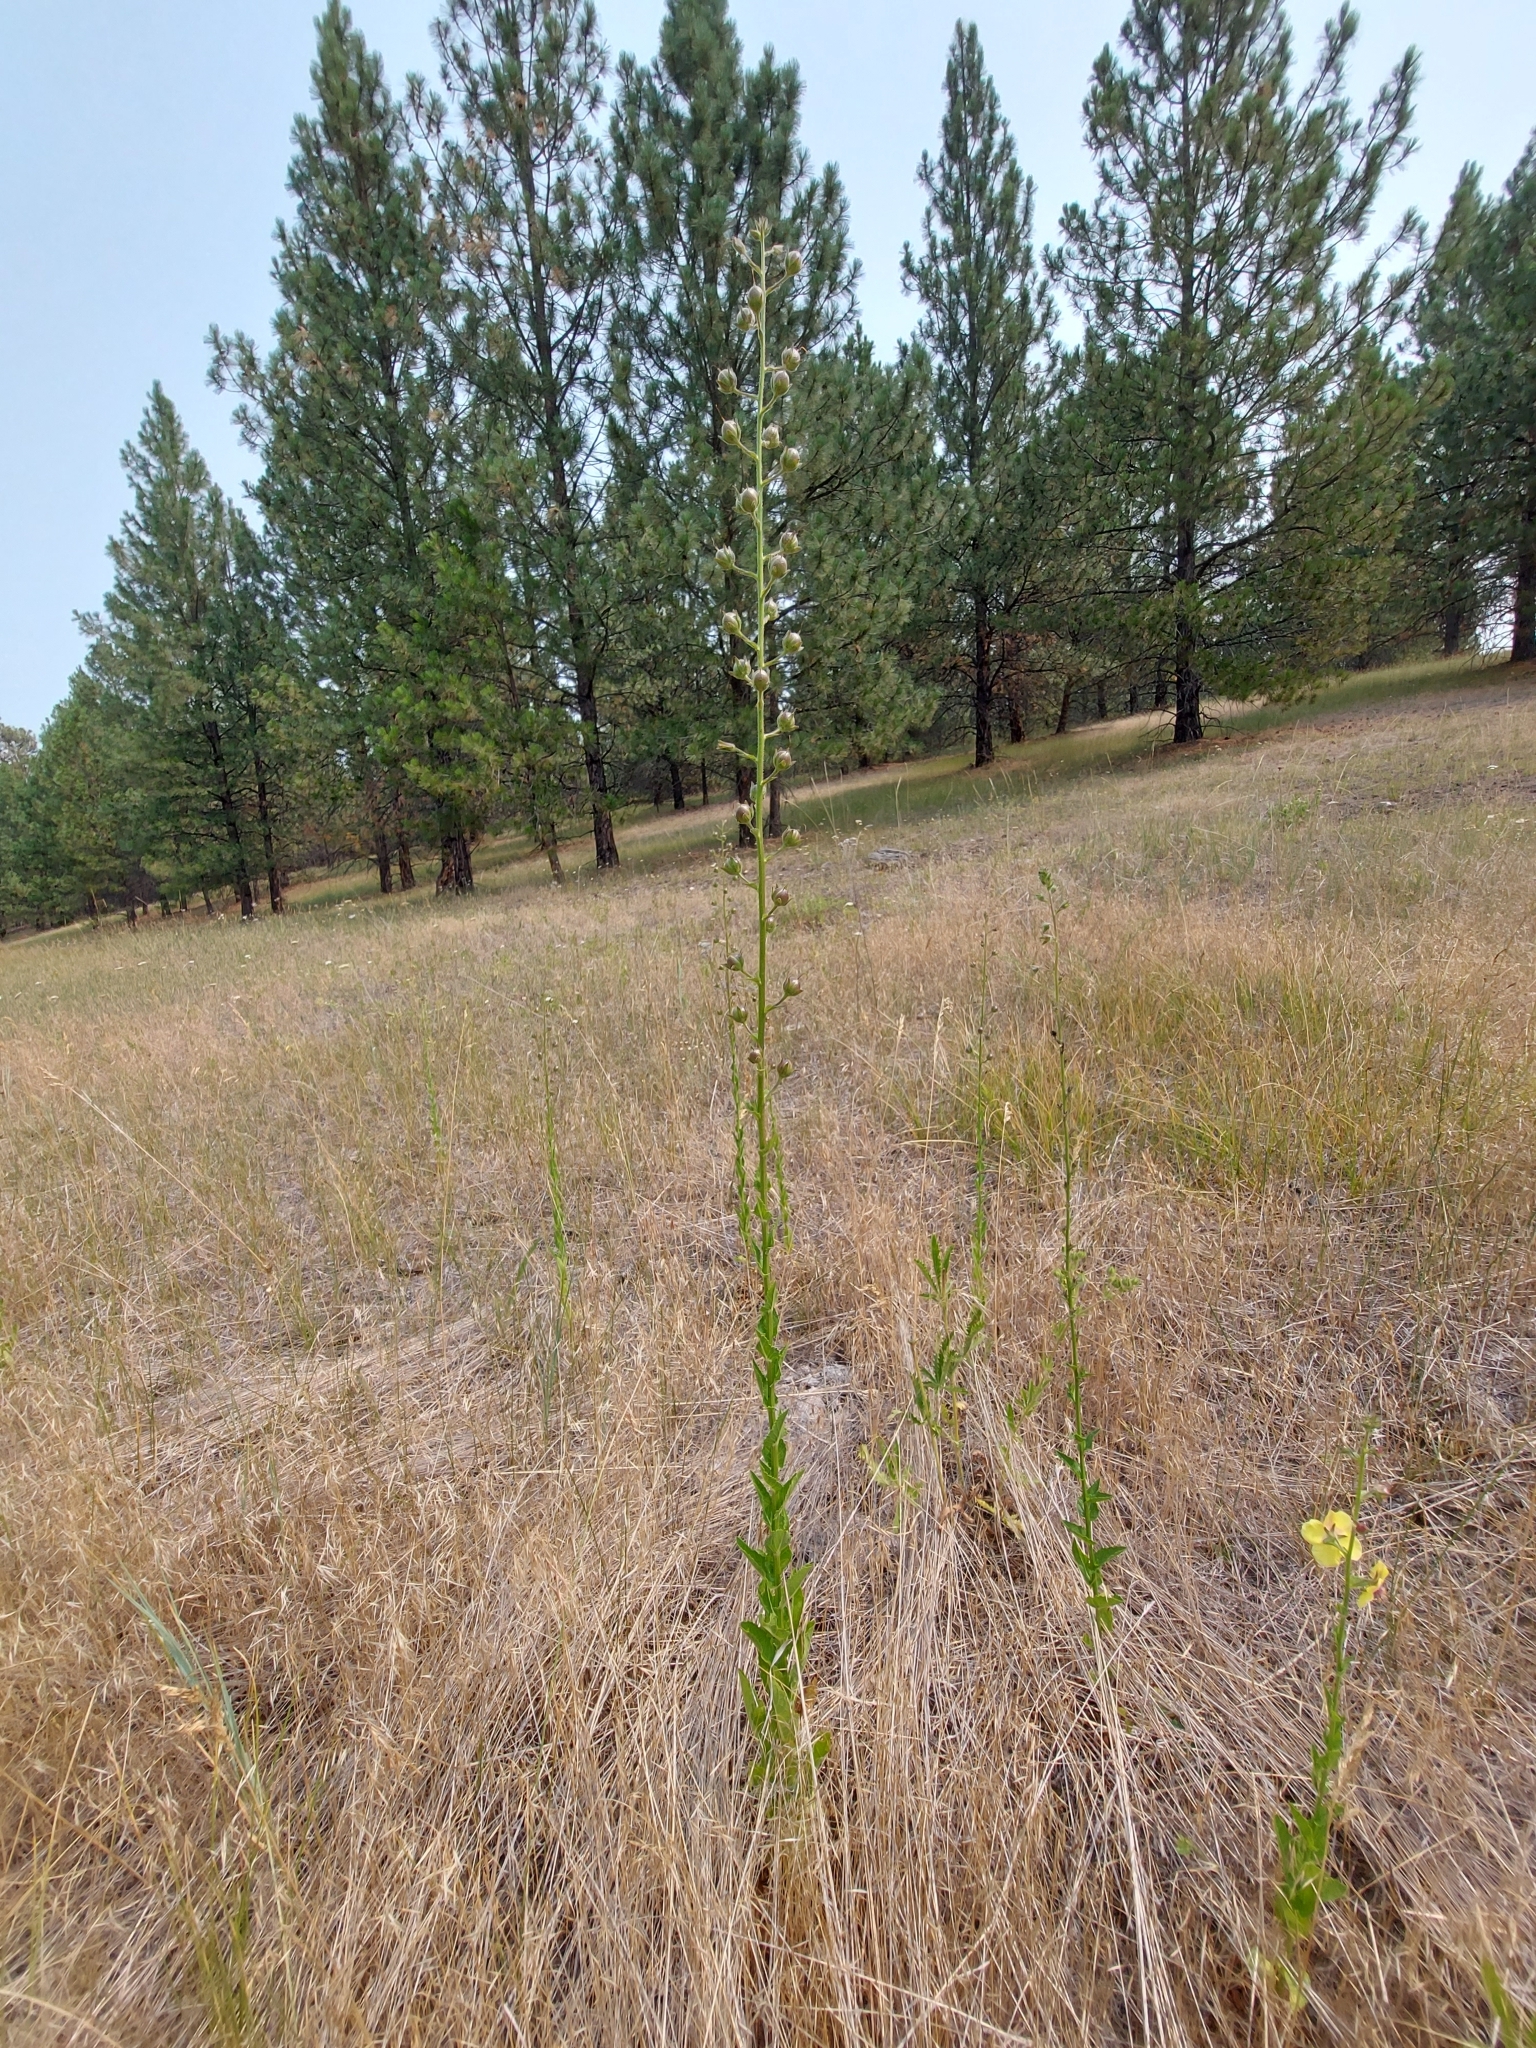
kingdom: Plantae
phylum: Tracheophyta
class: Magnoliopsida
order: Lamiales
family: Scrophulariaceae
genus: Verbascum
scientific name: Verbascum blattaria
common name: Moth mullein
